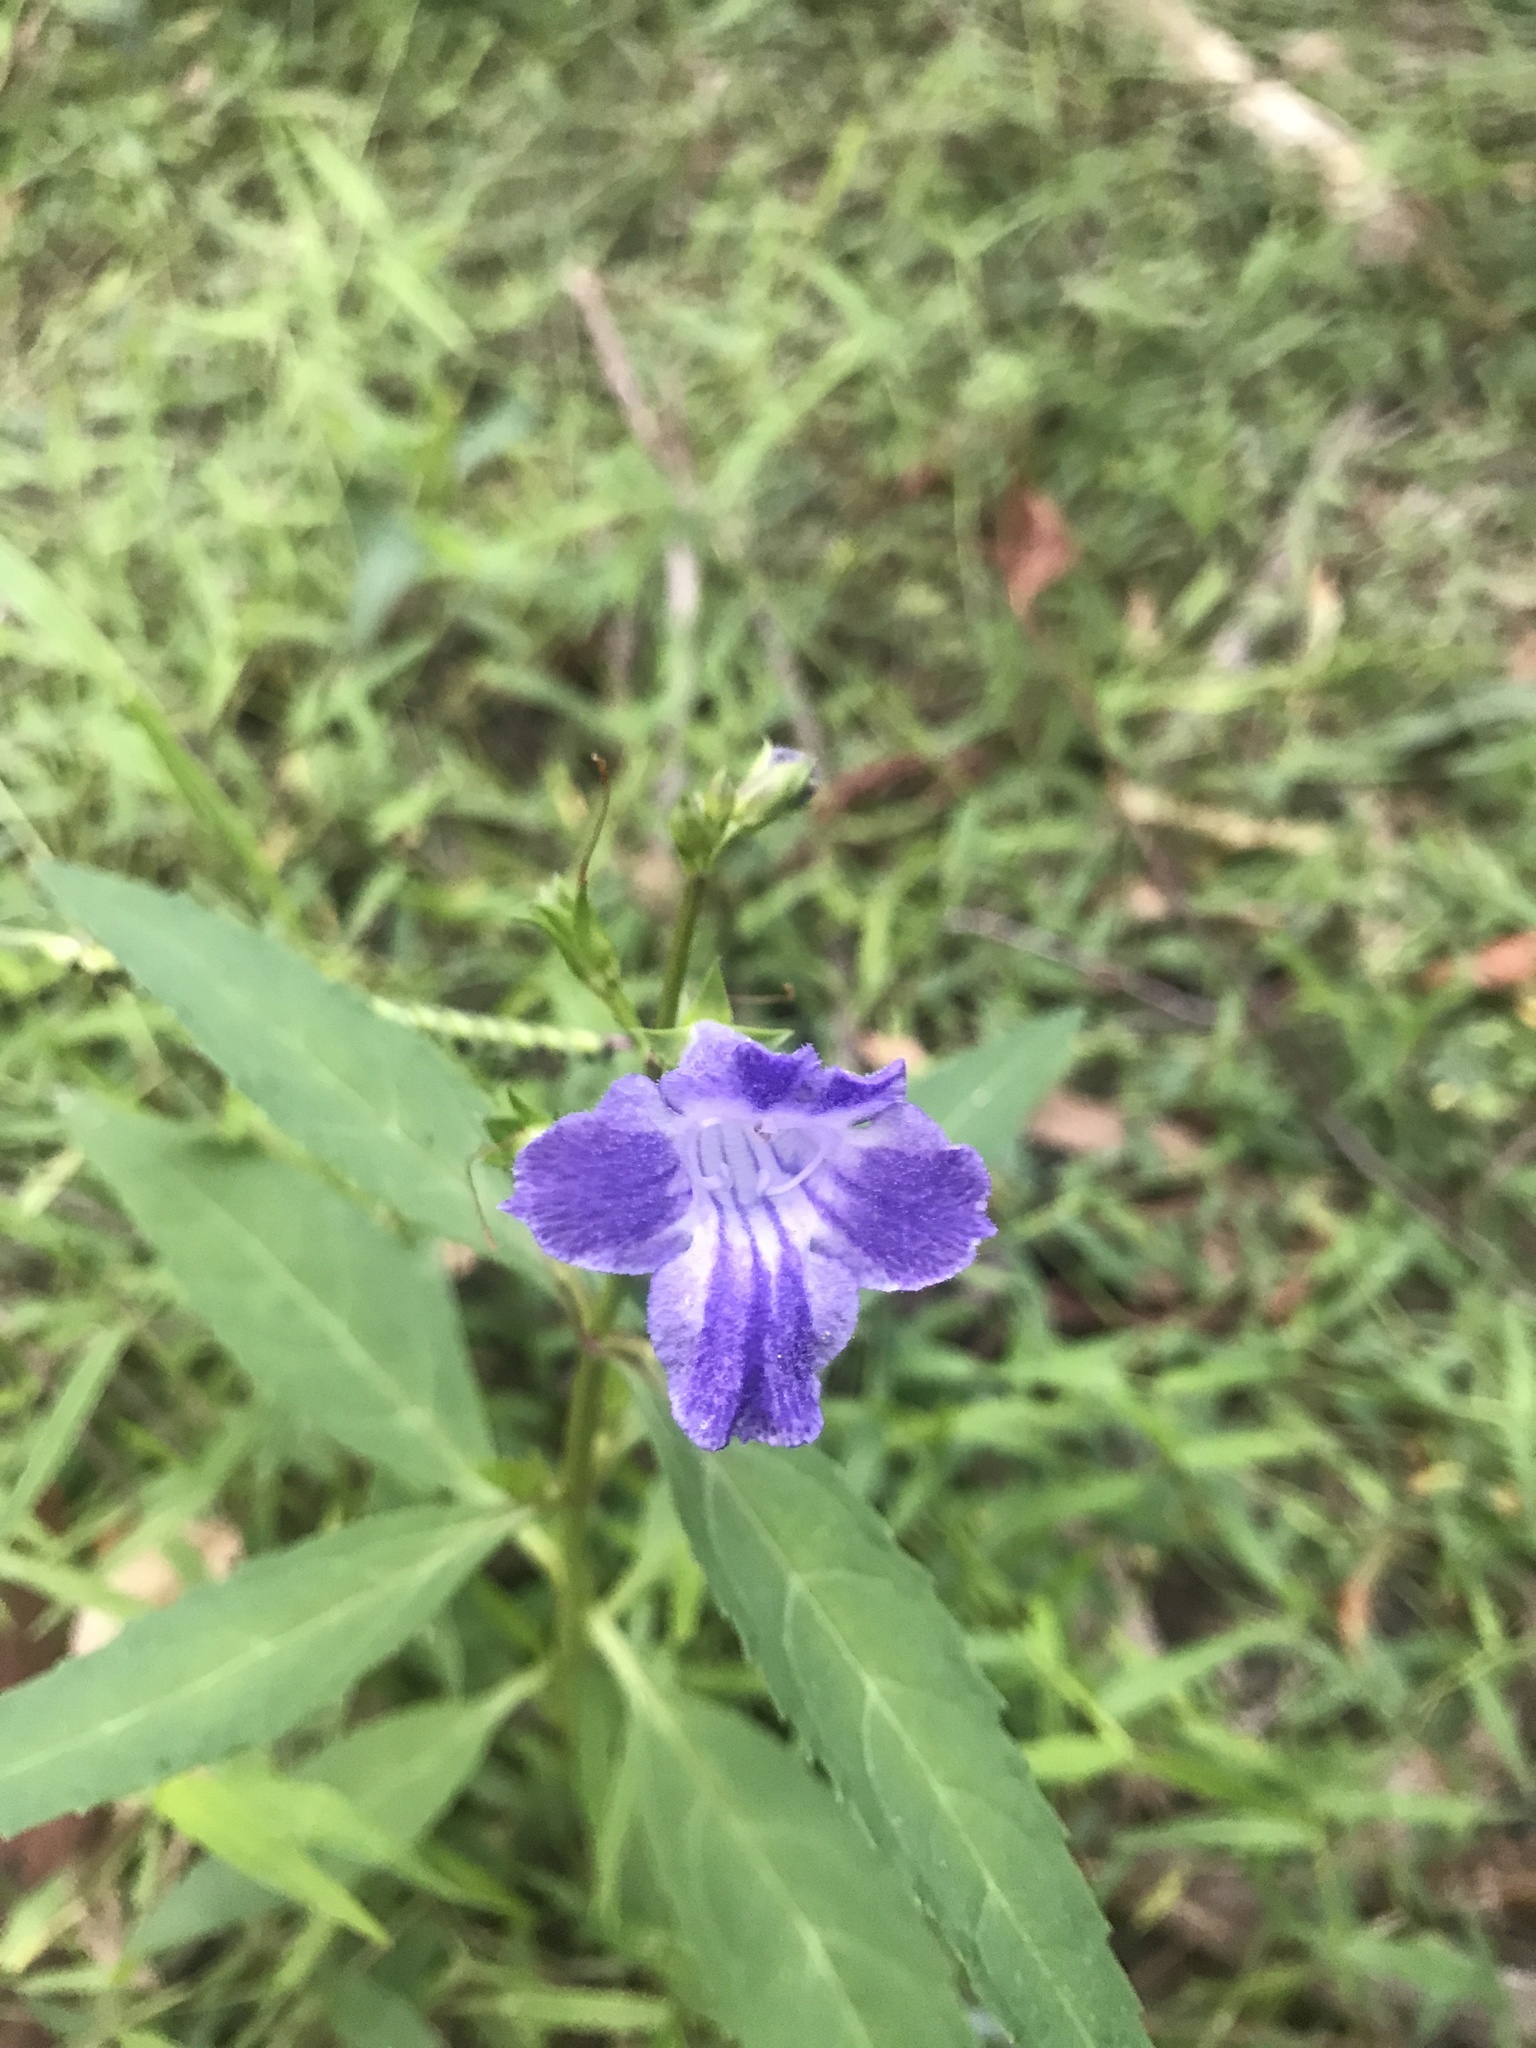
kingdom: Plantae
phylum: Tracheophyta
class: Magnoliopsida
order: Lamiales
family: Linderniaceae
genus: Artanema
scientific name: Artanema fimbriatum
